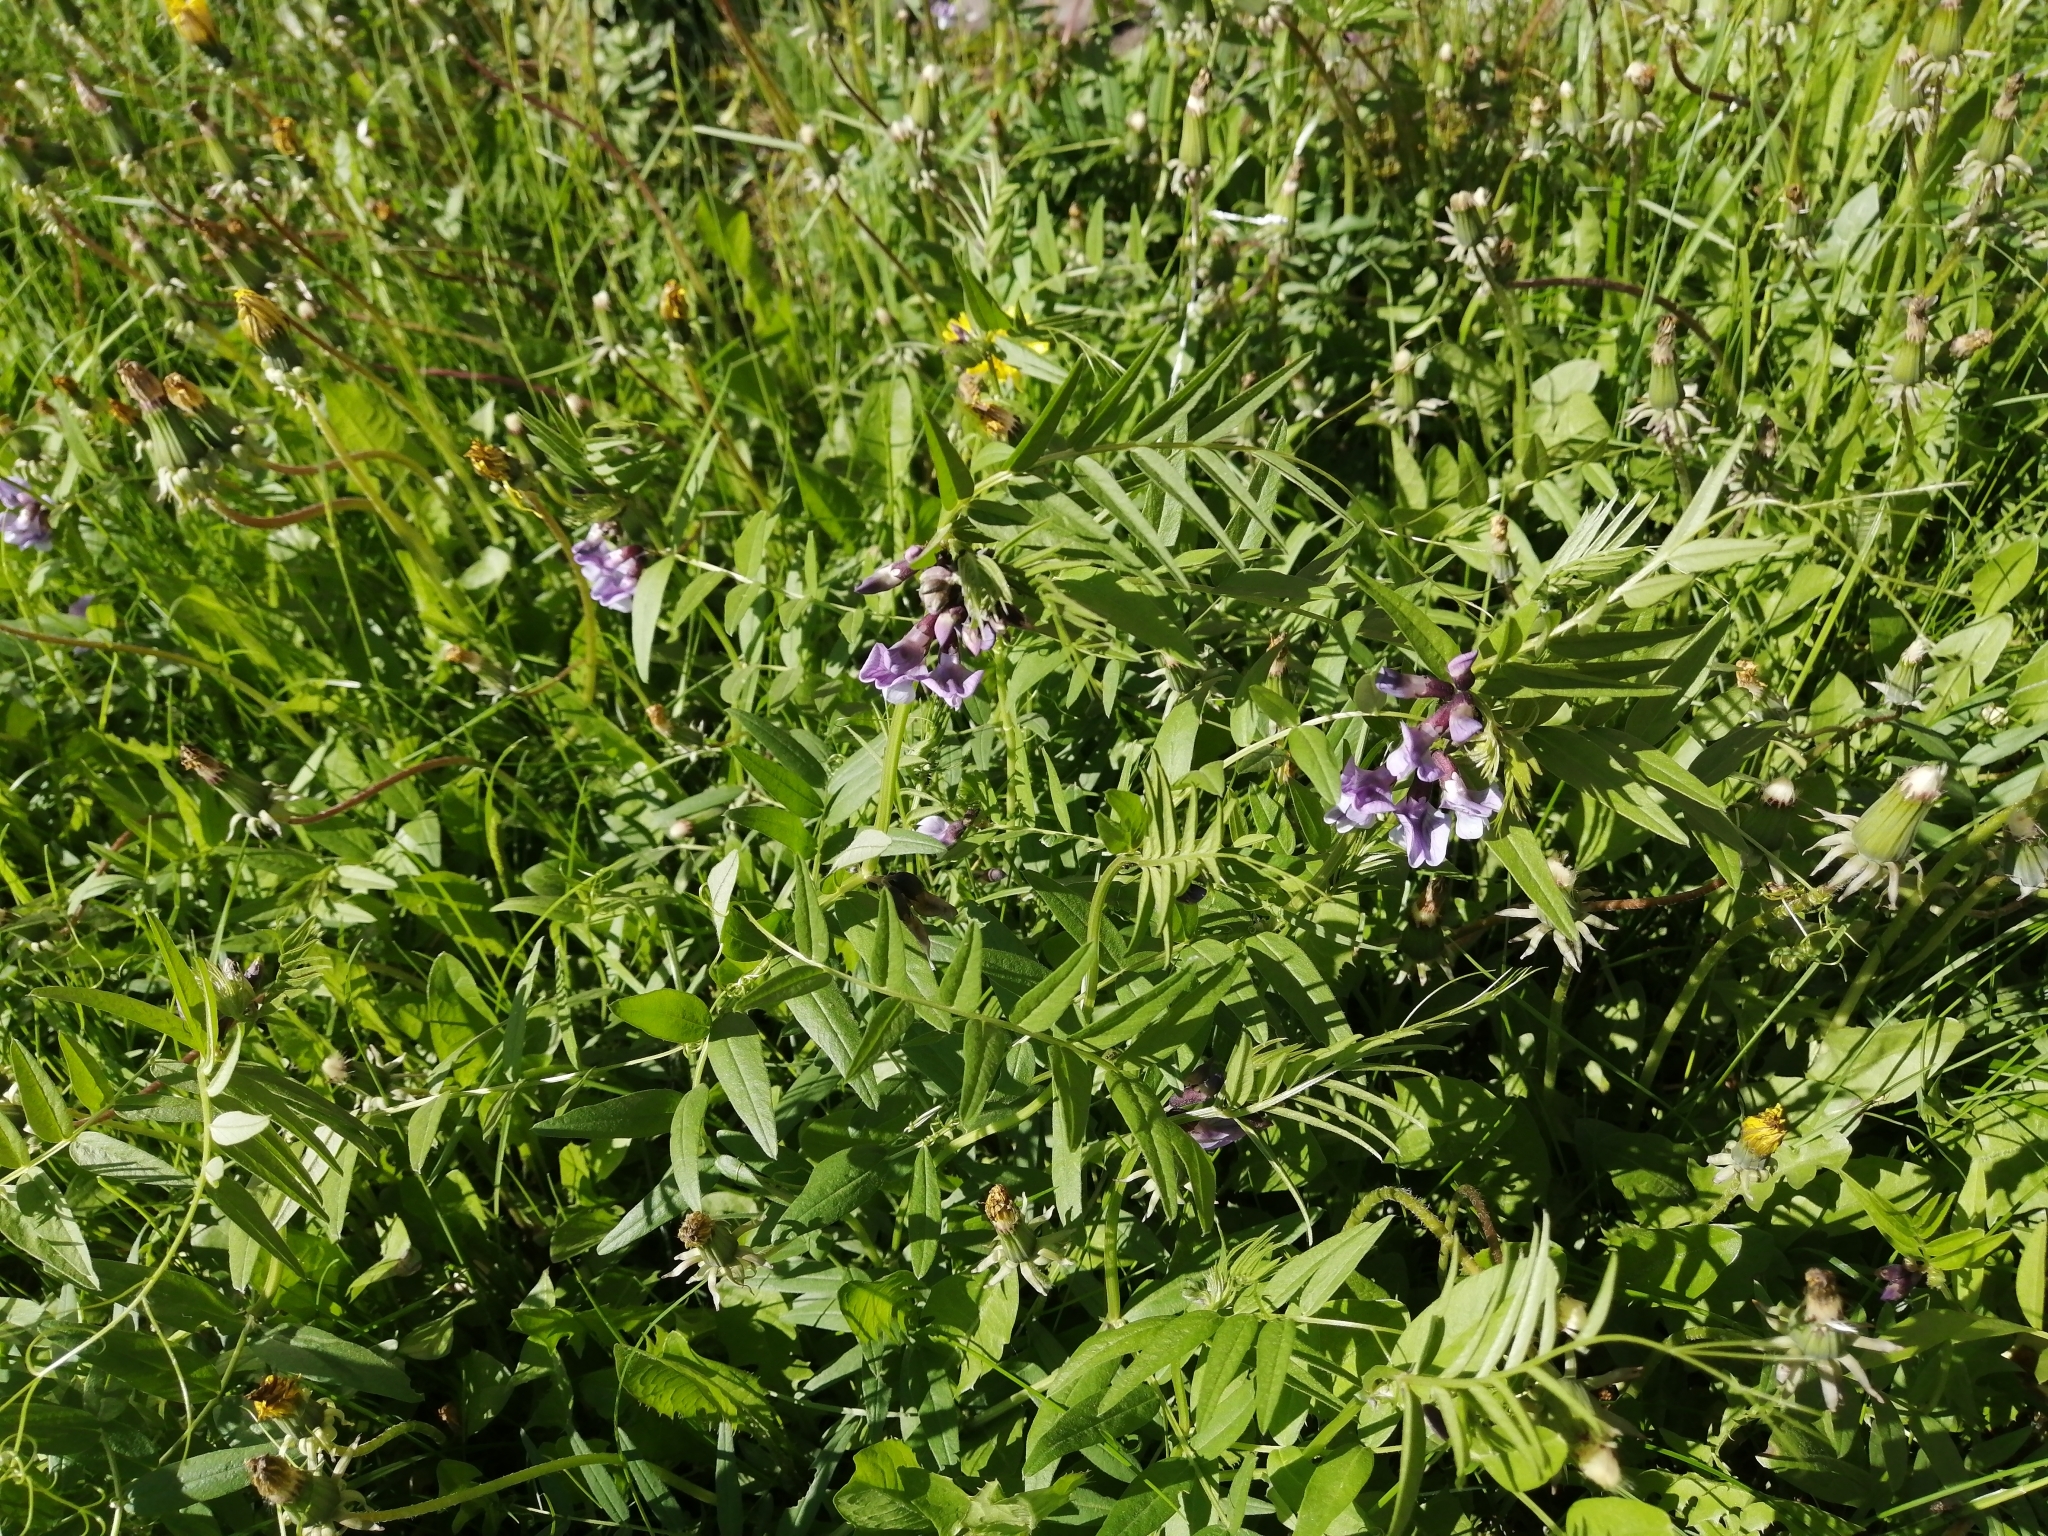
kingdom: Plantae
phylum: Tracheophyta
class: Magnoliopsida
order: Fabales
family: Fabaceae
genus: Vicia
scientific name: Vicia sepium
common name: Bush vetch
